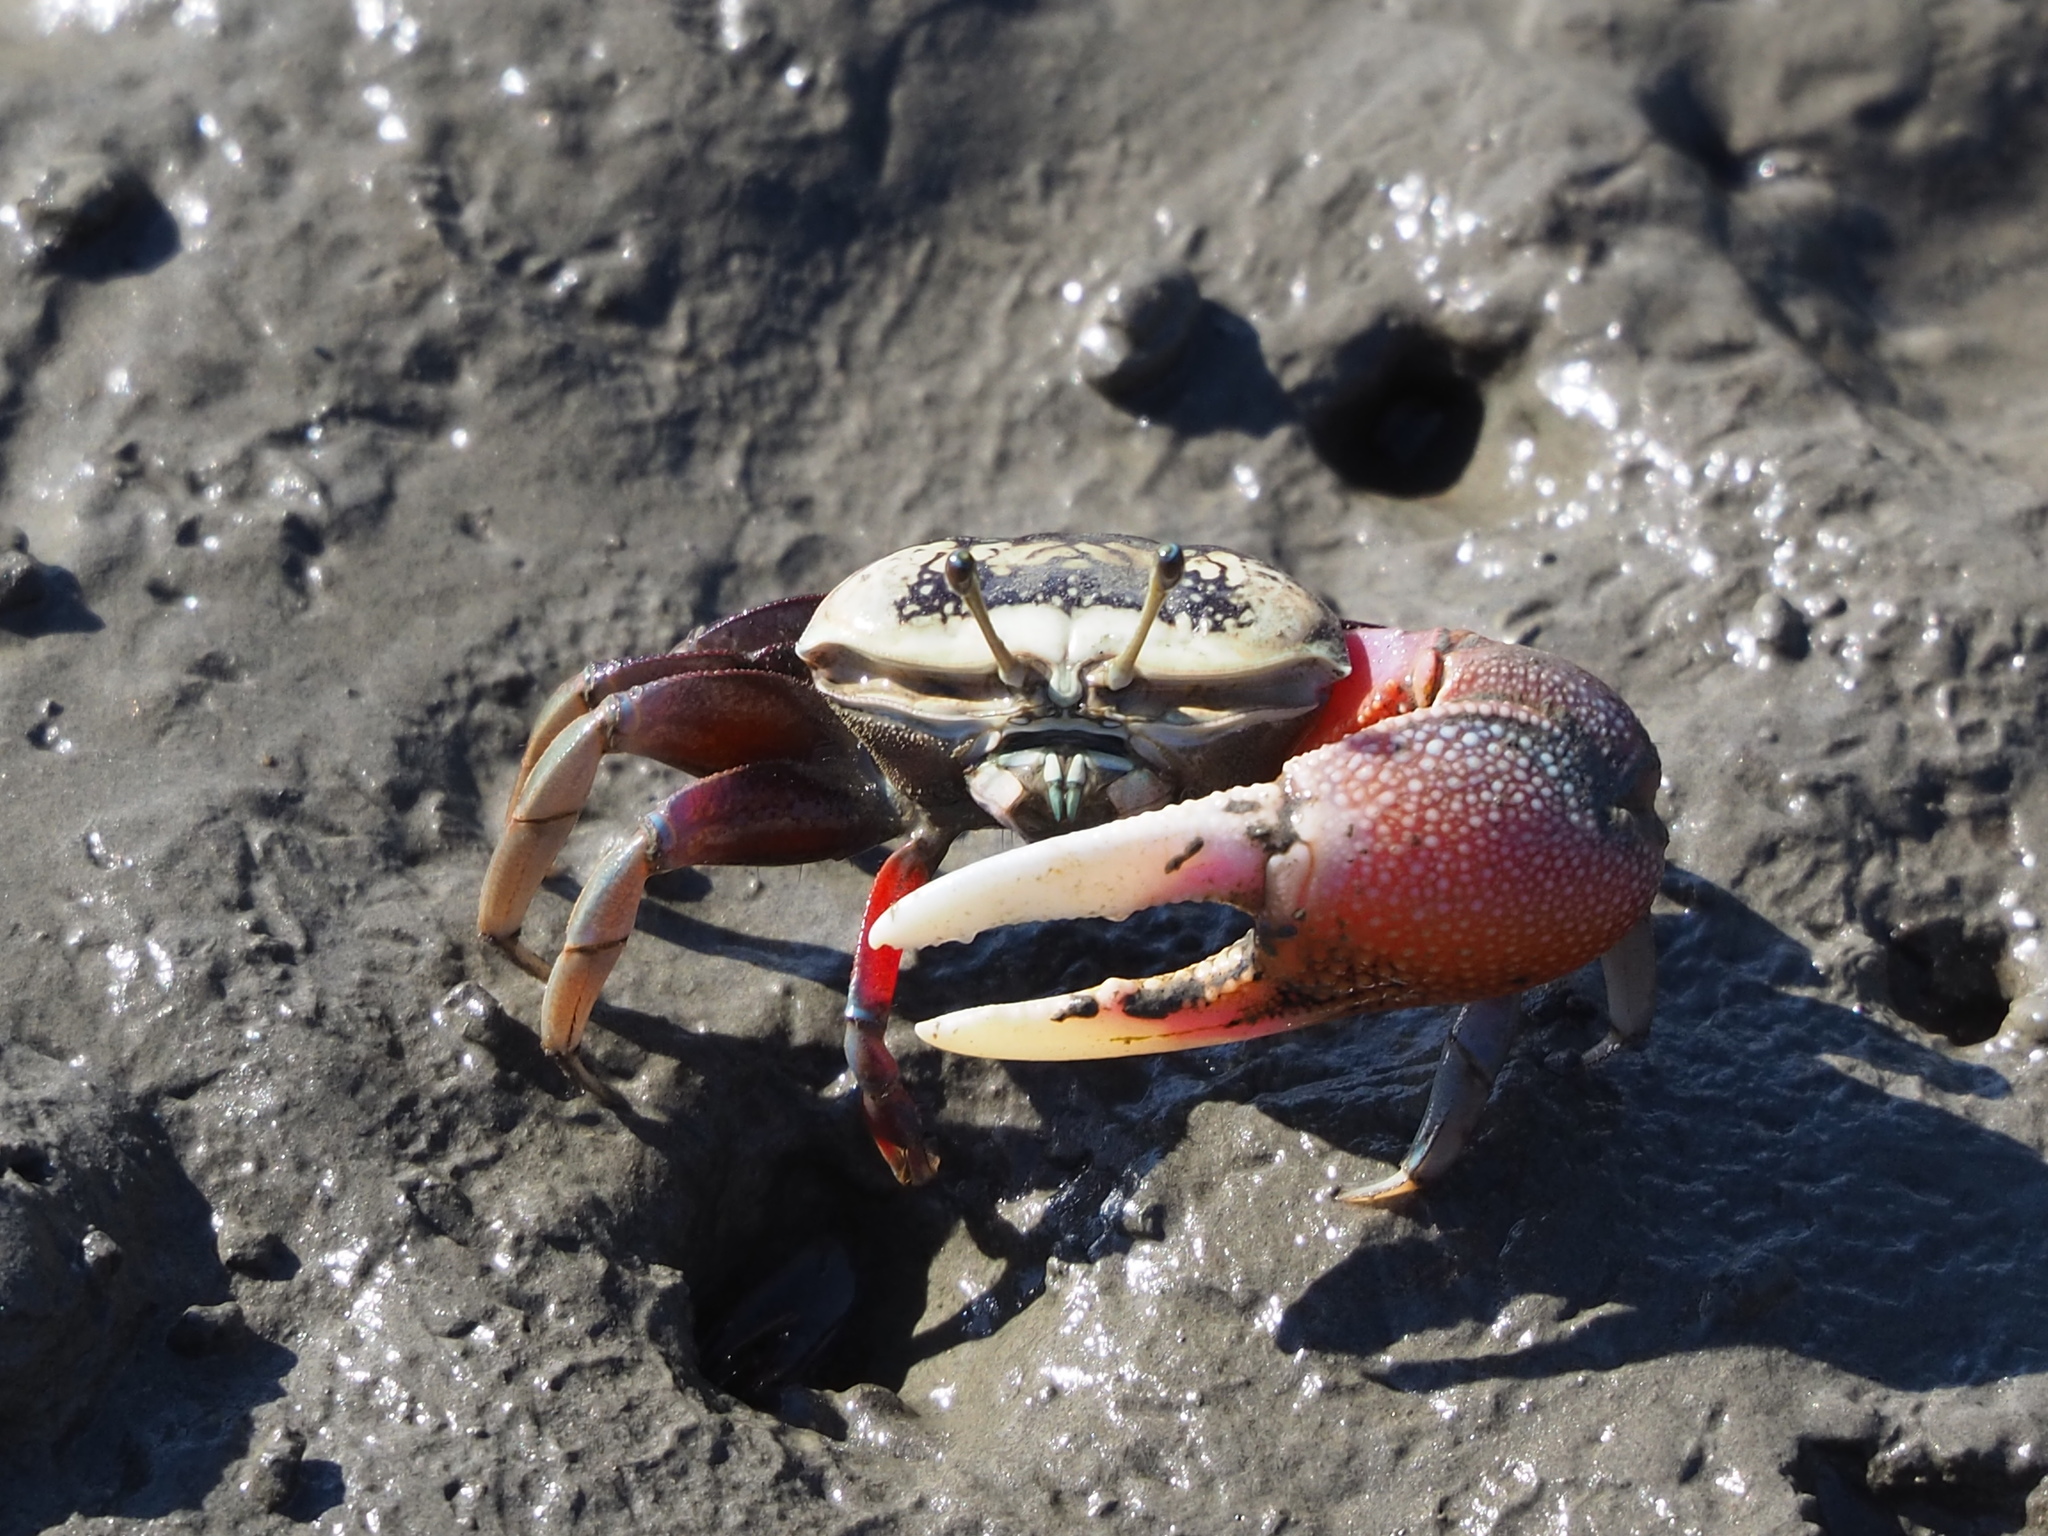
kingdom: Animalia
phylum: Arthropoda
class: Malacostraca
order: Decapoda
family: Ocypodidae
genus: Tubuca
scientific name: Tubuca arcuata
